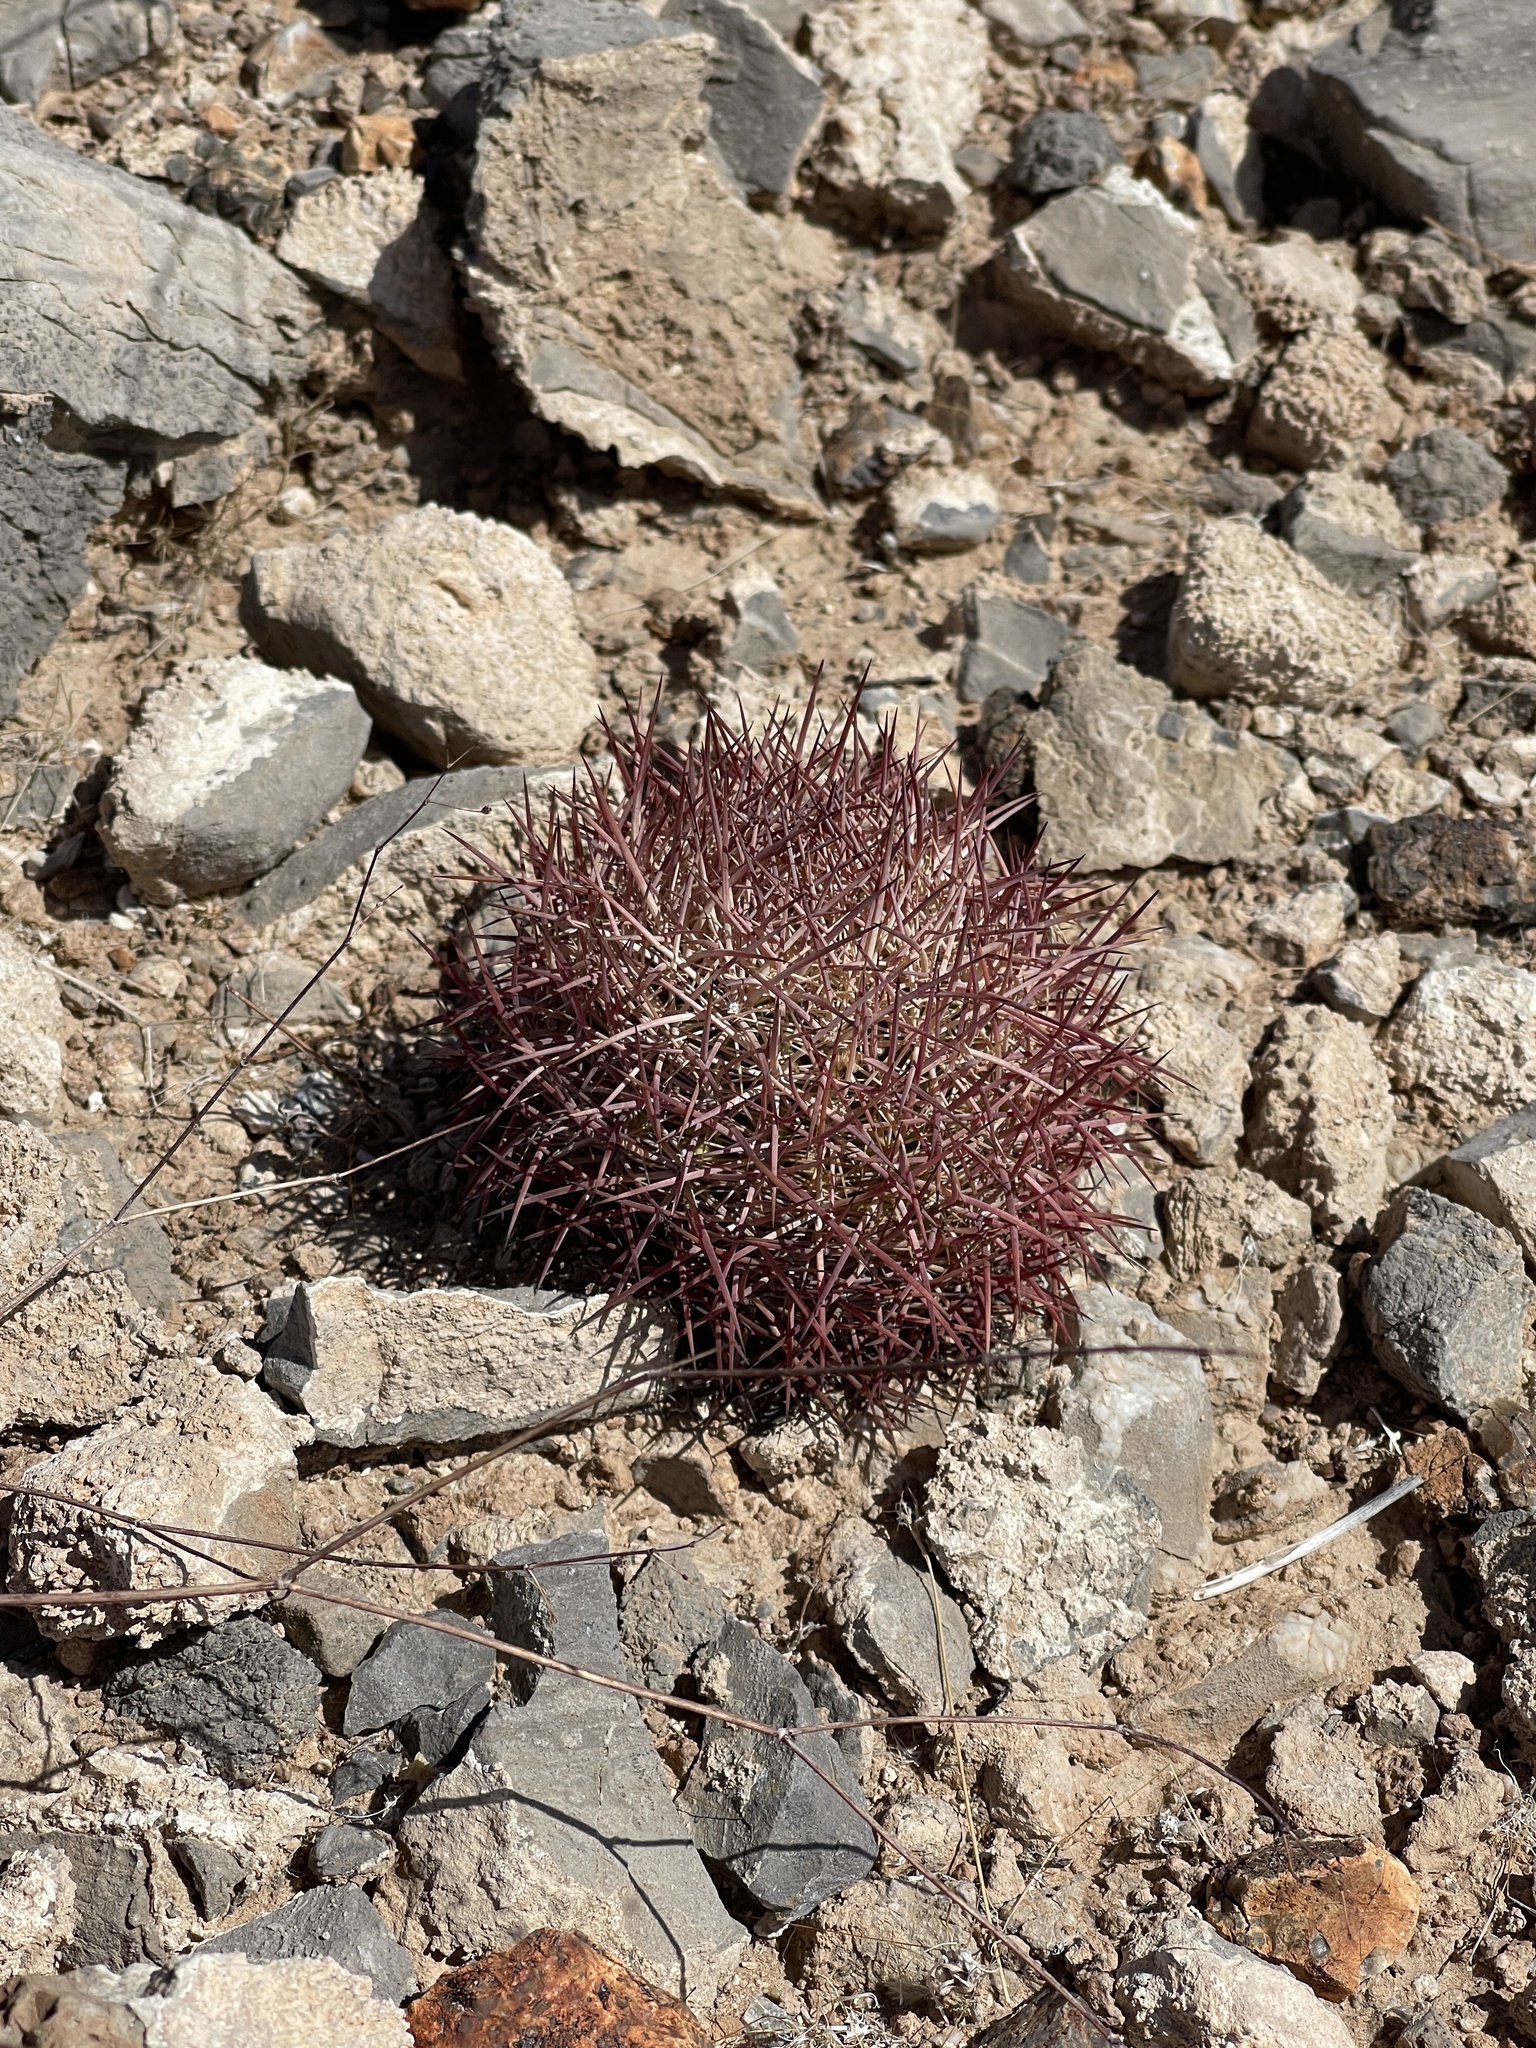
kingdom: Plantae
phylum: Tracheophyta
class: Magnoliopsida
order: Caryophyllales
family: Cactaceae
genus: Sclerocactus
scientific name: Sclerocactus johnsonii
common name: Eight-spine fishhook cactus
